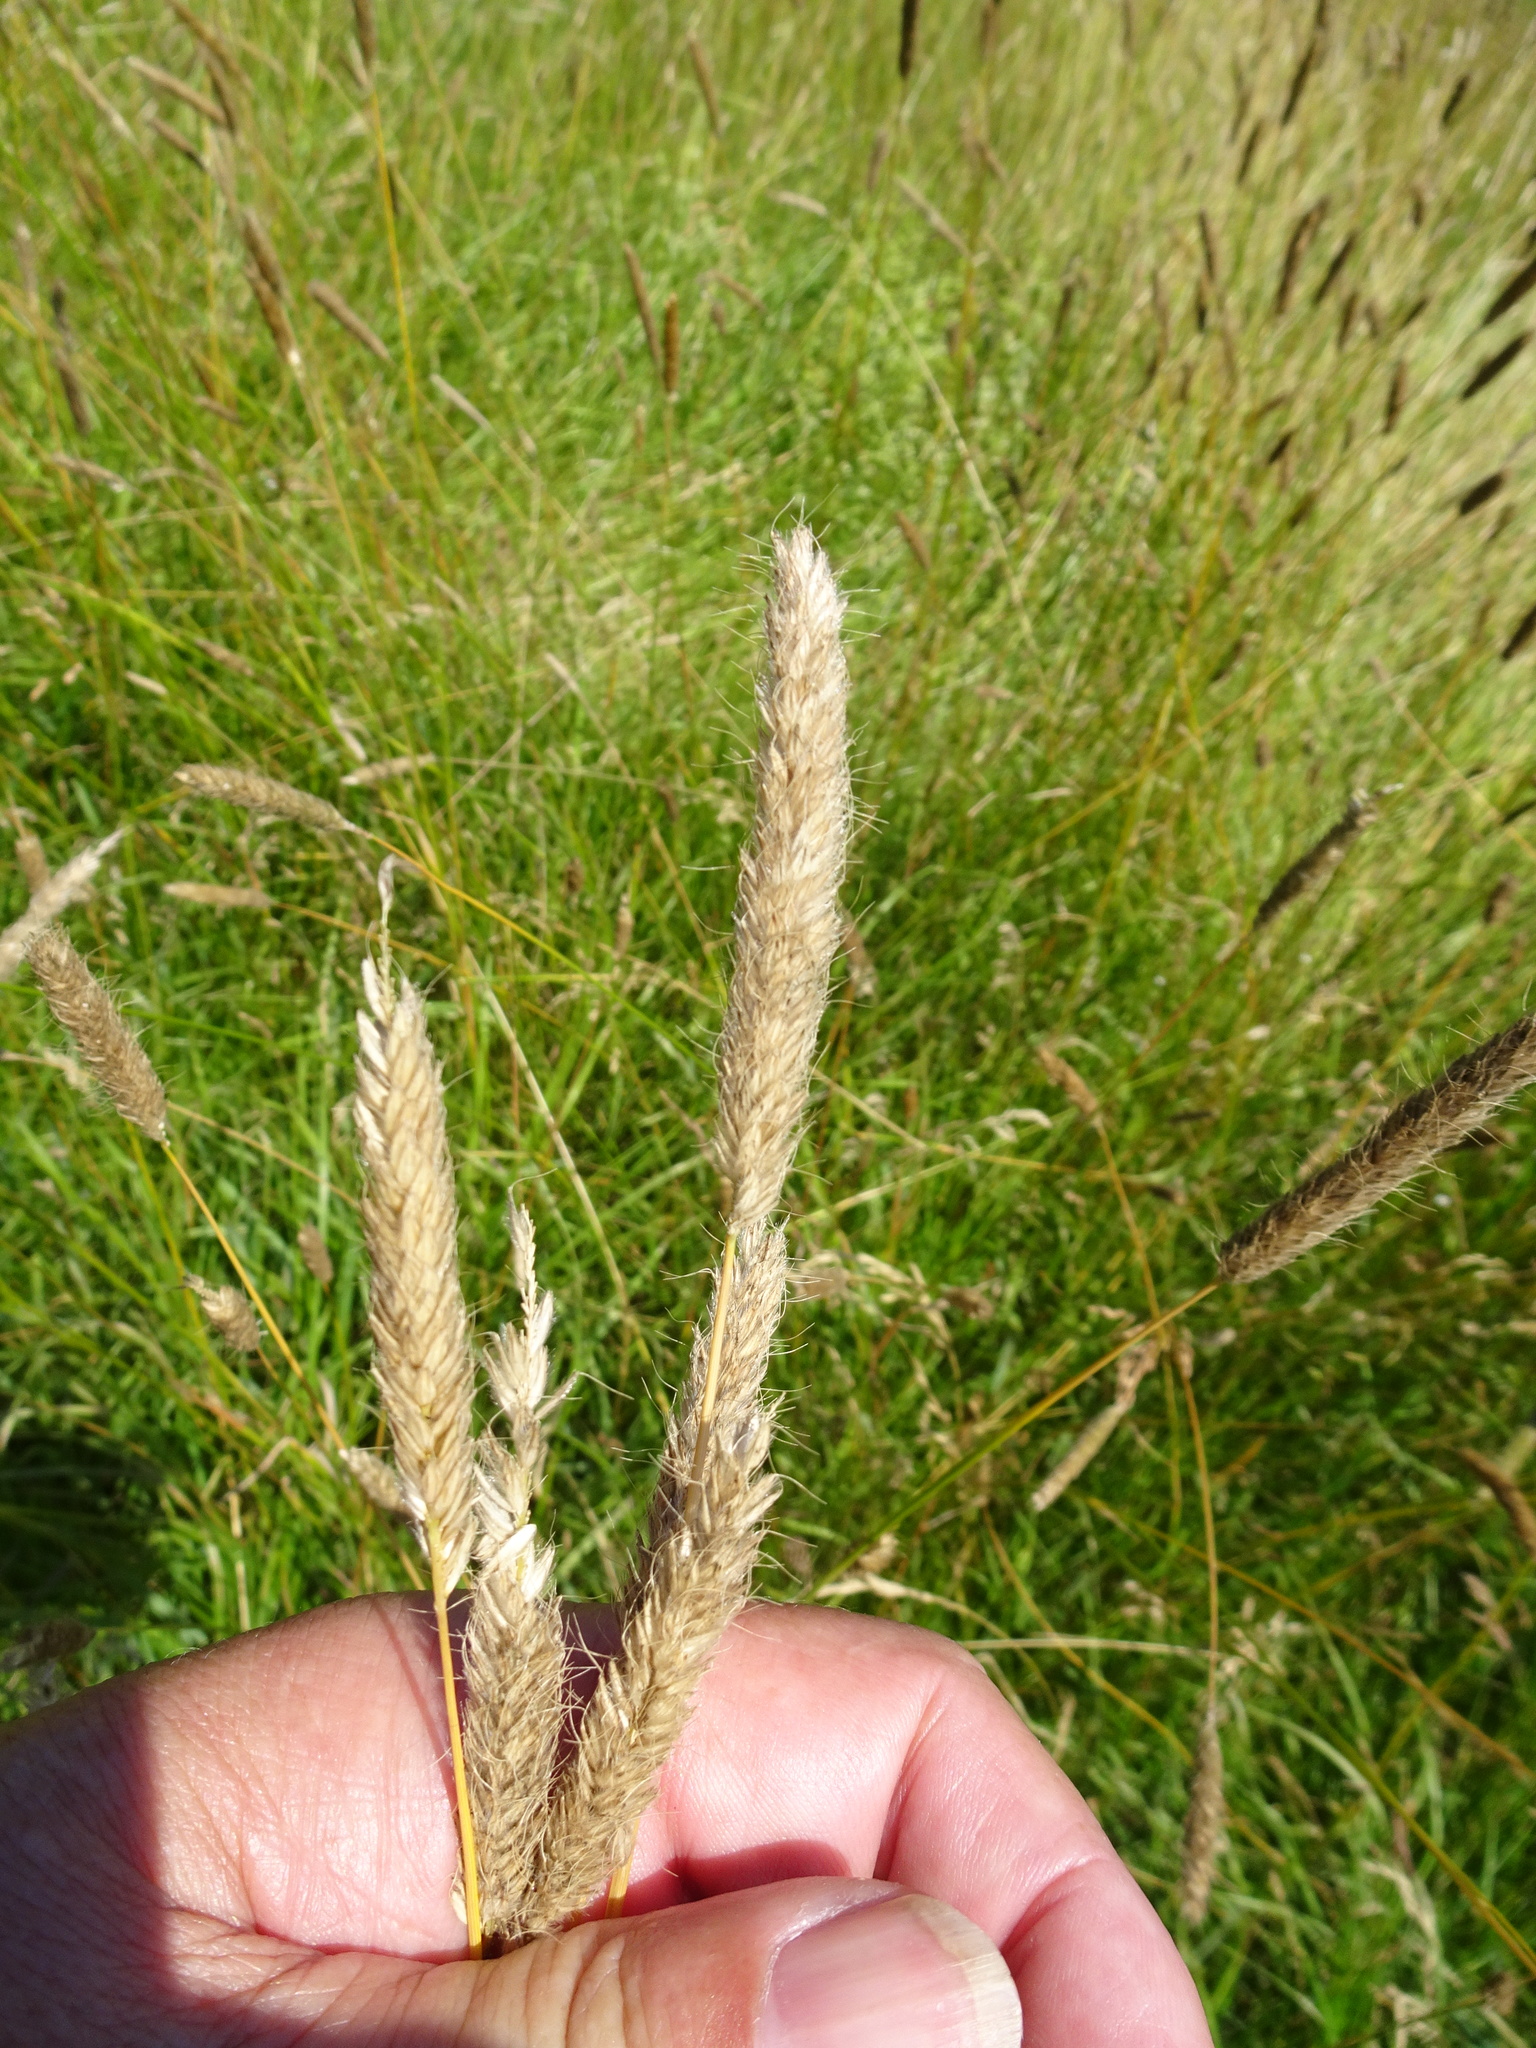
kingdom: Plantae
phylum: Tracheophyta
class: Liliopsida
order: Poales
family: Poaceae
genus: Alopecurus
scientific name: Alopecurus pratensis
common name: Meadow foxtail
